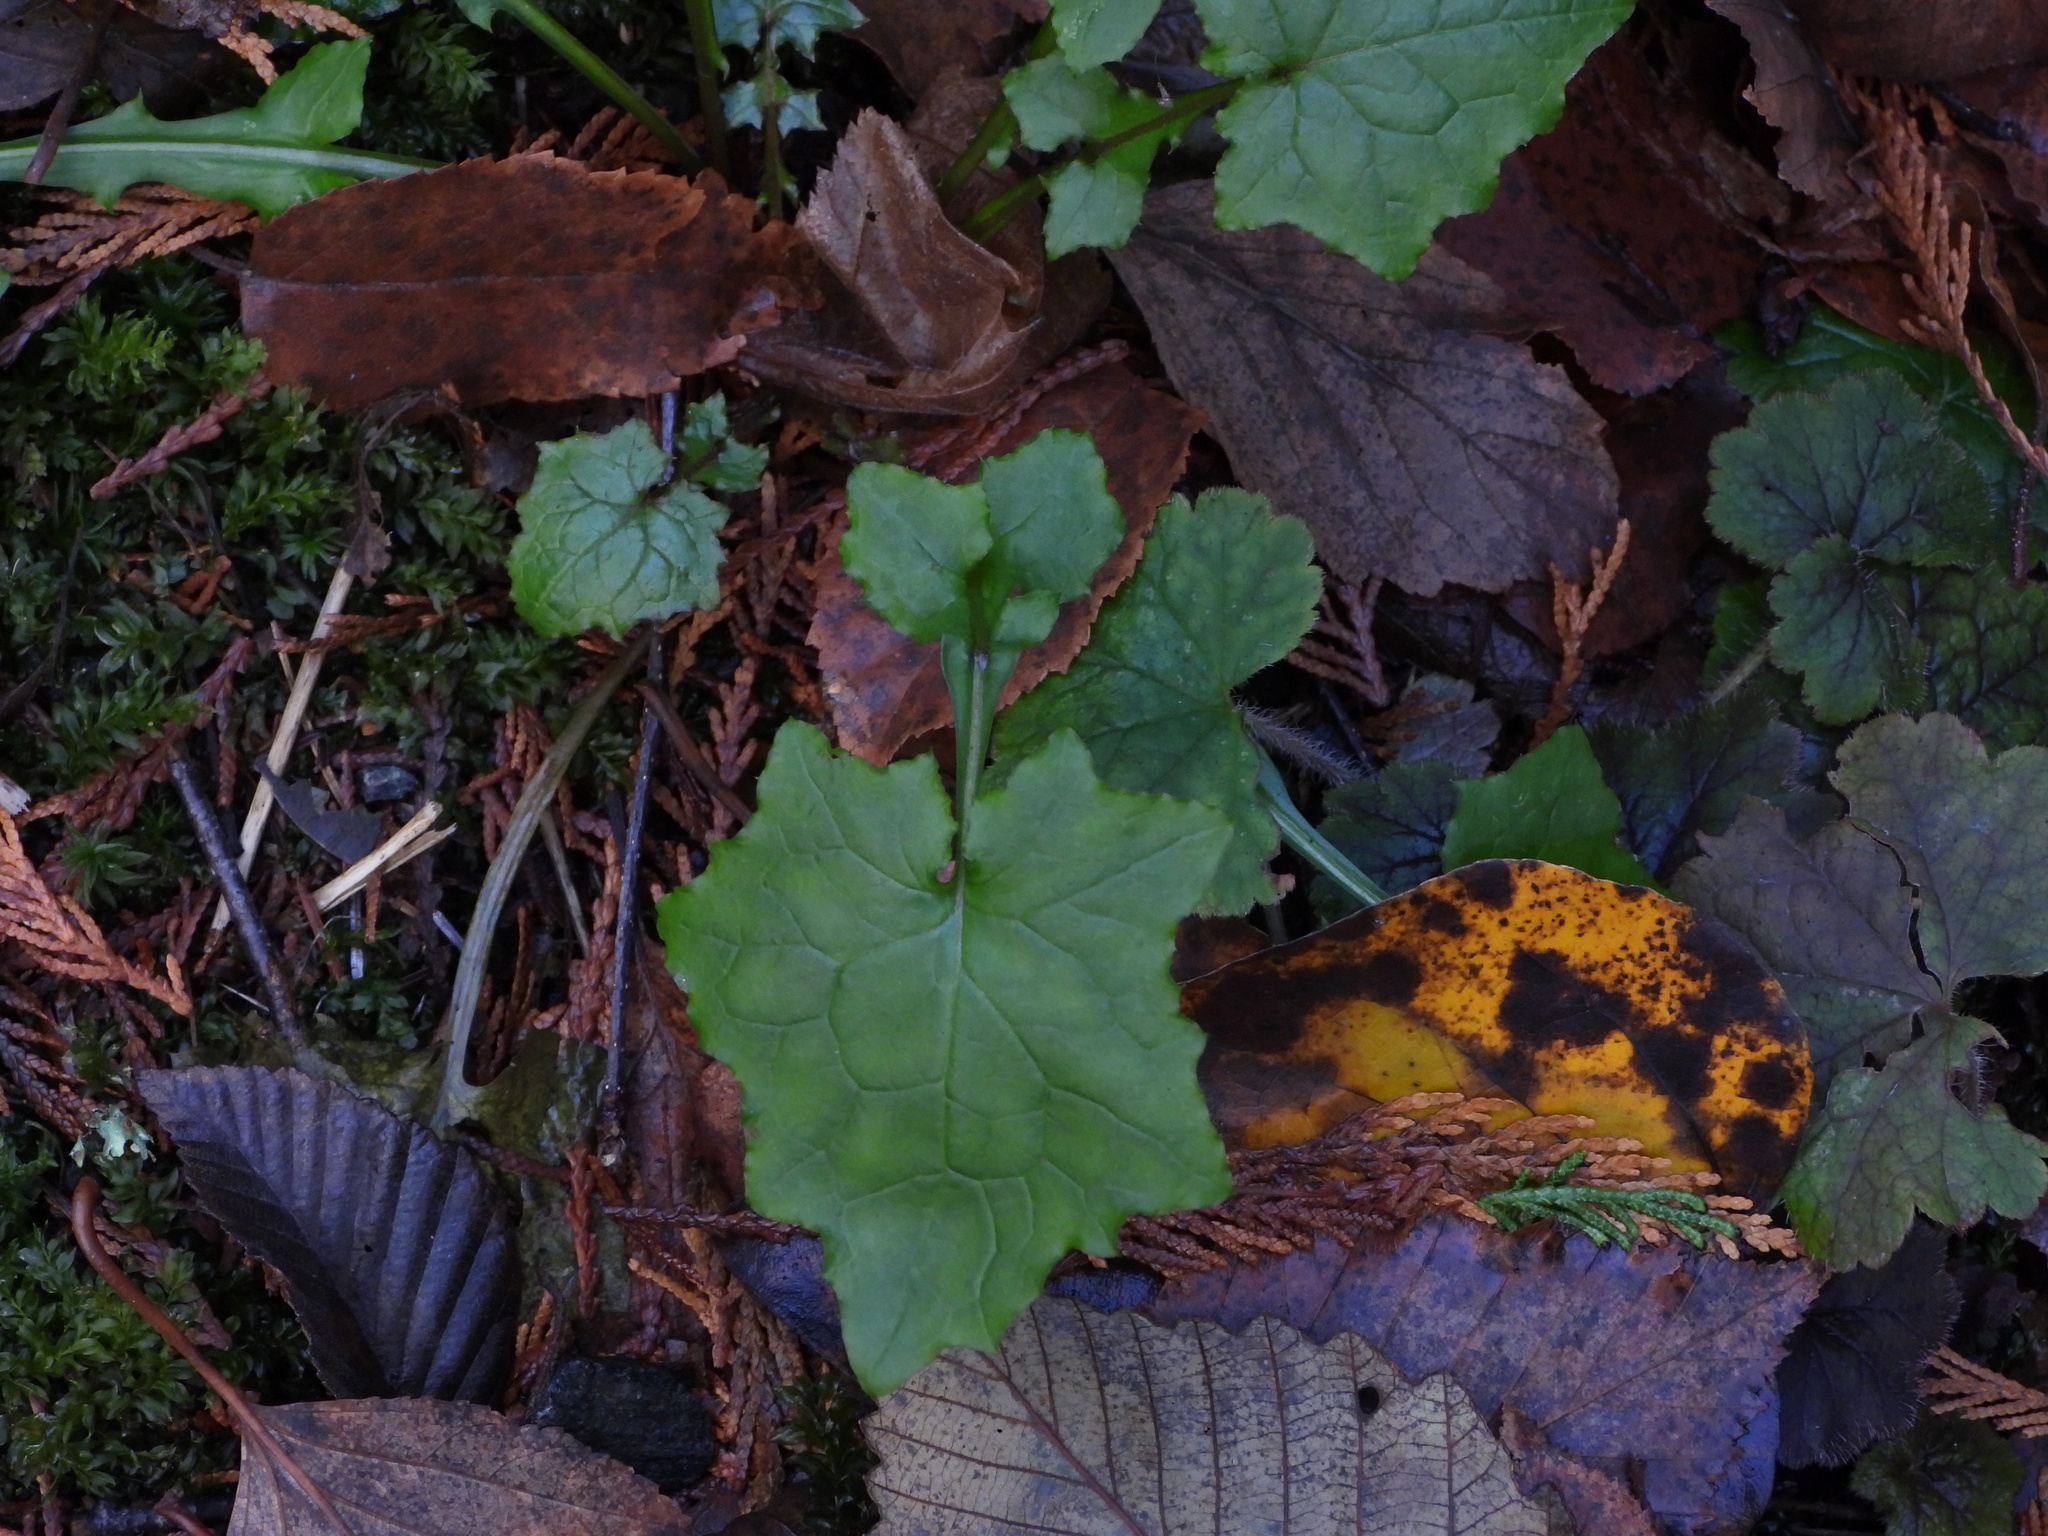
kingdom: Plantae
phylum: Tracheophyta
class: Magnoliopsida
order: Asterales
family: Asteraceae
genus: Mycelis
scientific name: Mycelis muralis
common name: Wall lettuce
